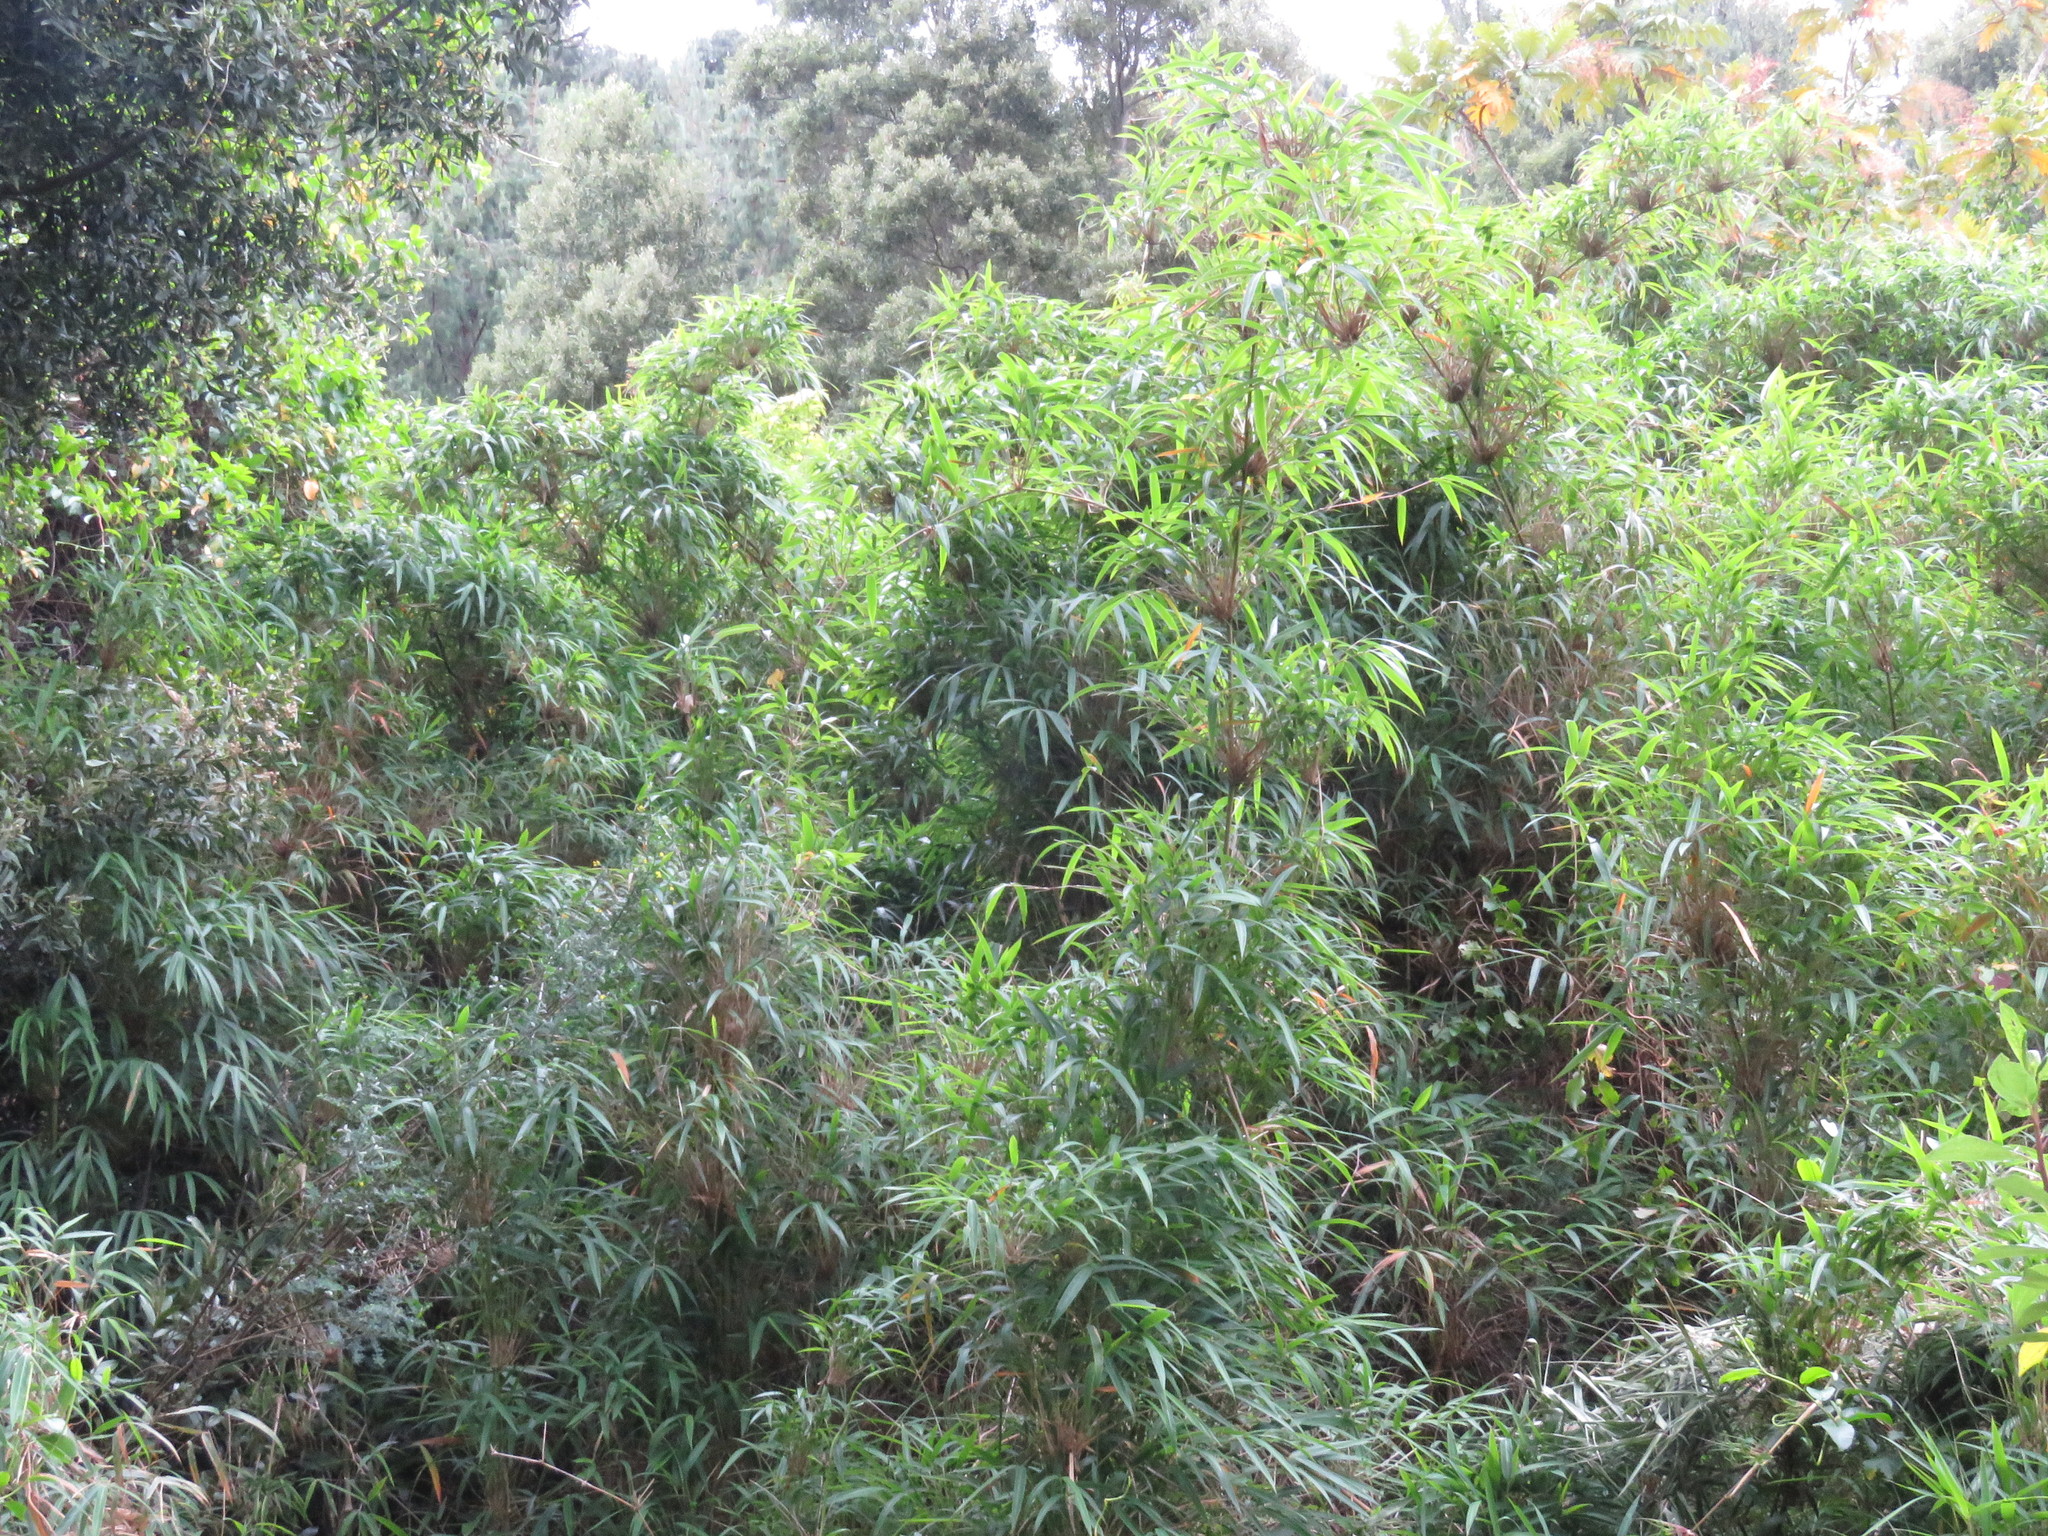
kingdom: Plantae
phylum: Tracheophyta
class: Liliopsida
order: Poales
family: Poaceae
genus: Chusquea
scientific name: Chusquea scandens
